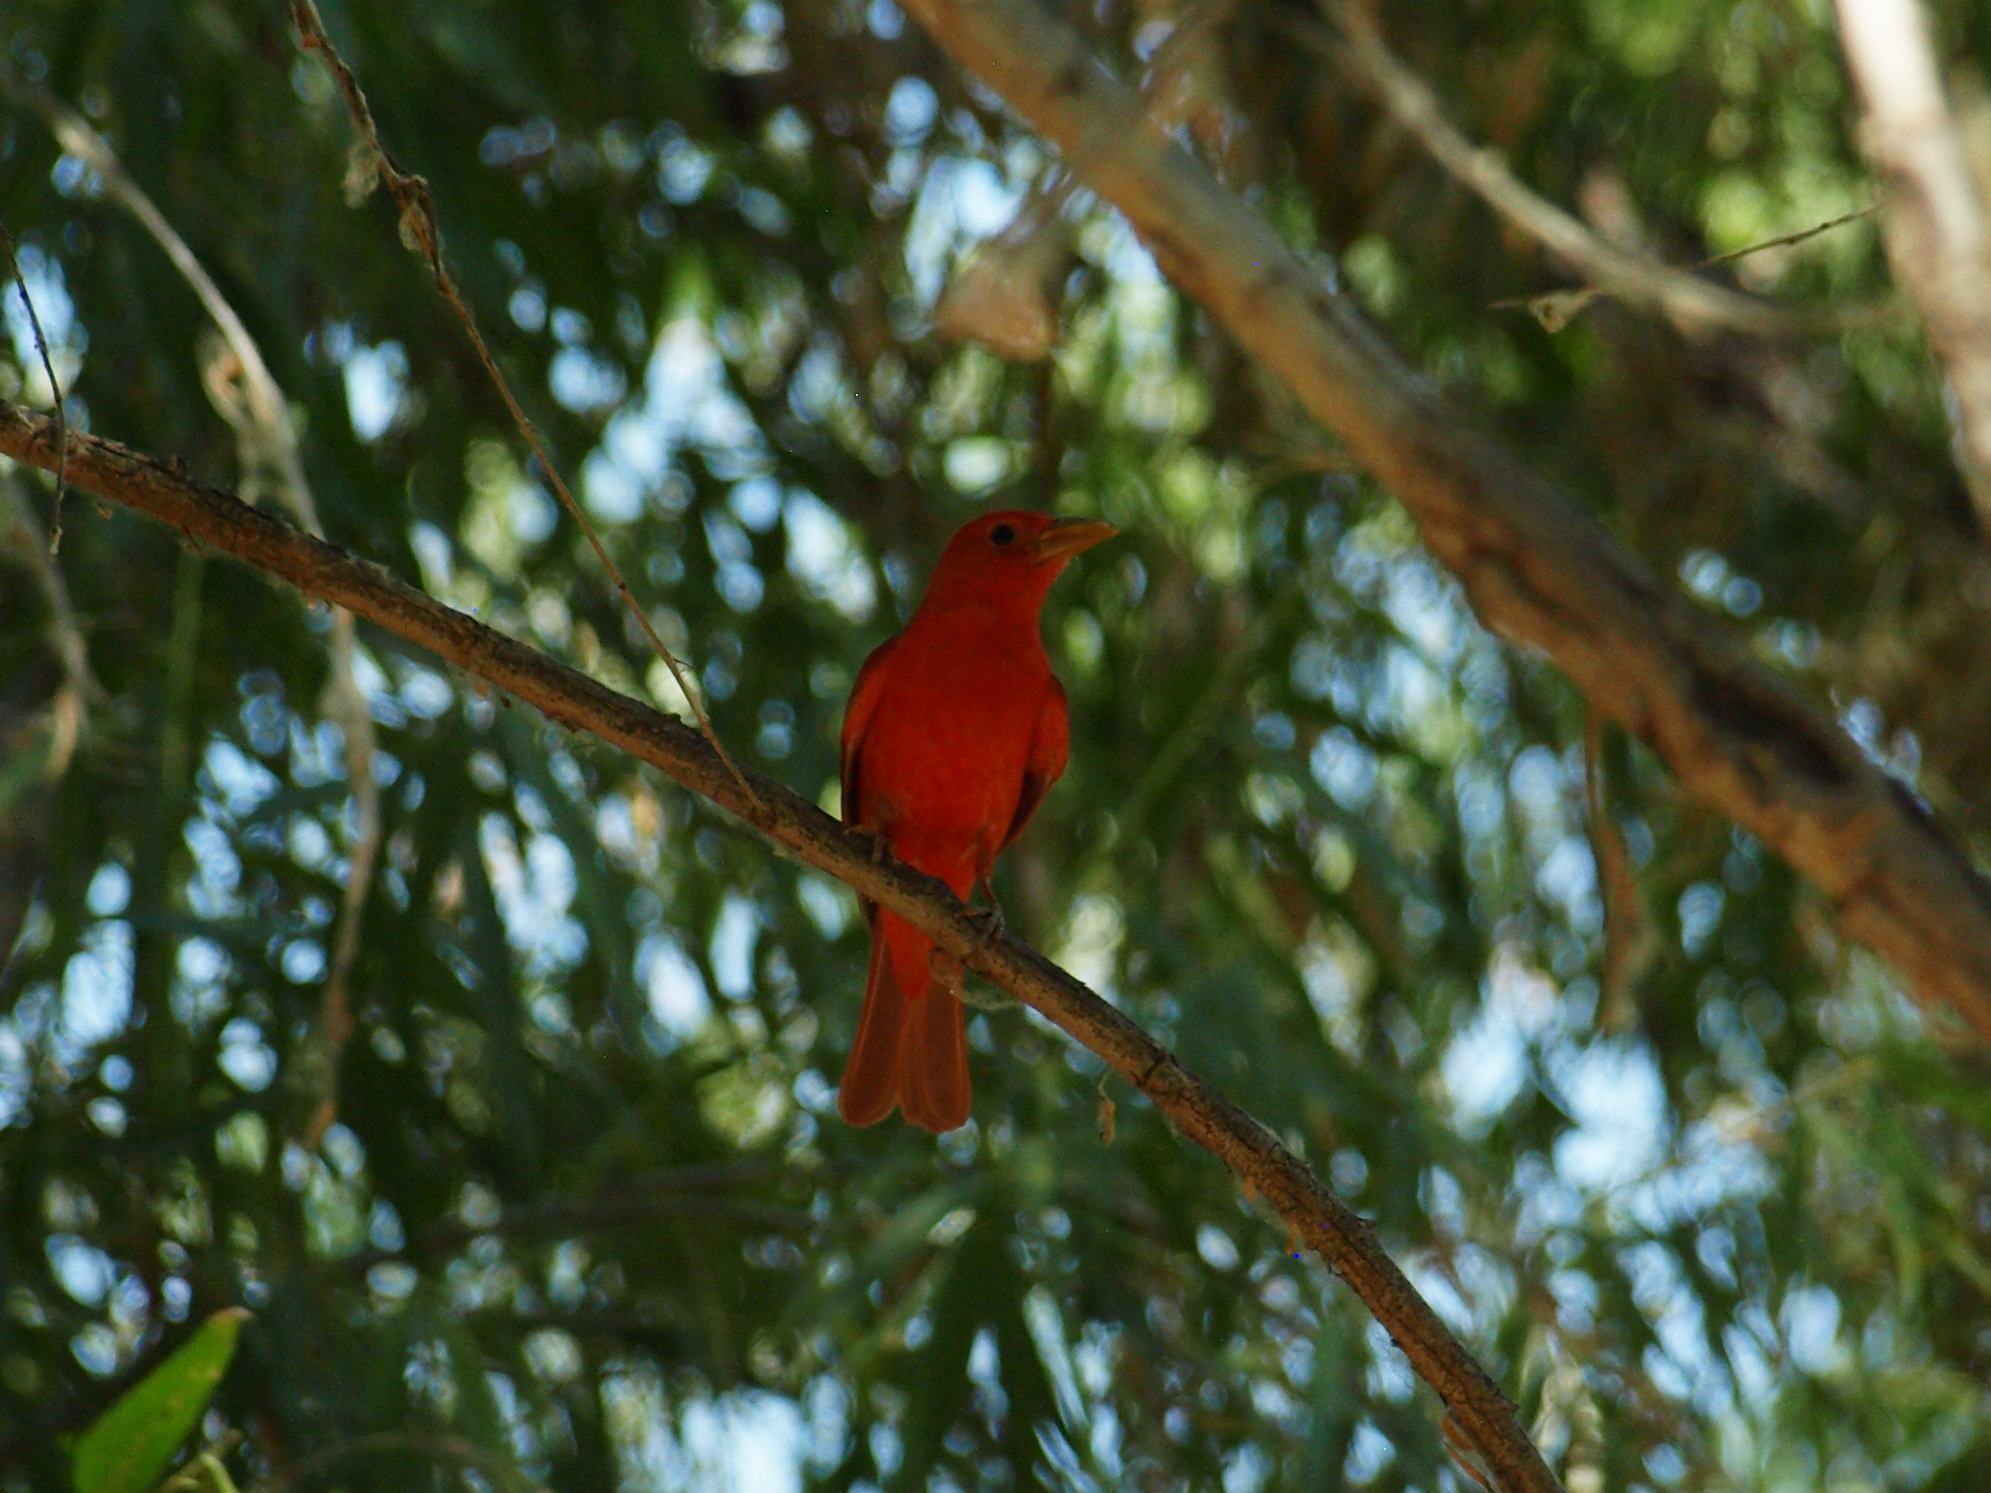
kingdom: Animalia
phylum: Chordata
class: Aves
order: Passeriformes
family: Cardinalidae
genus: Piranga
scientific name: Piranga rubra
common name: Summer tanager
